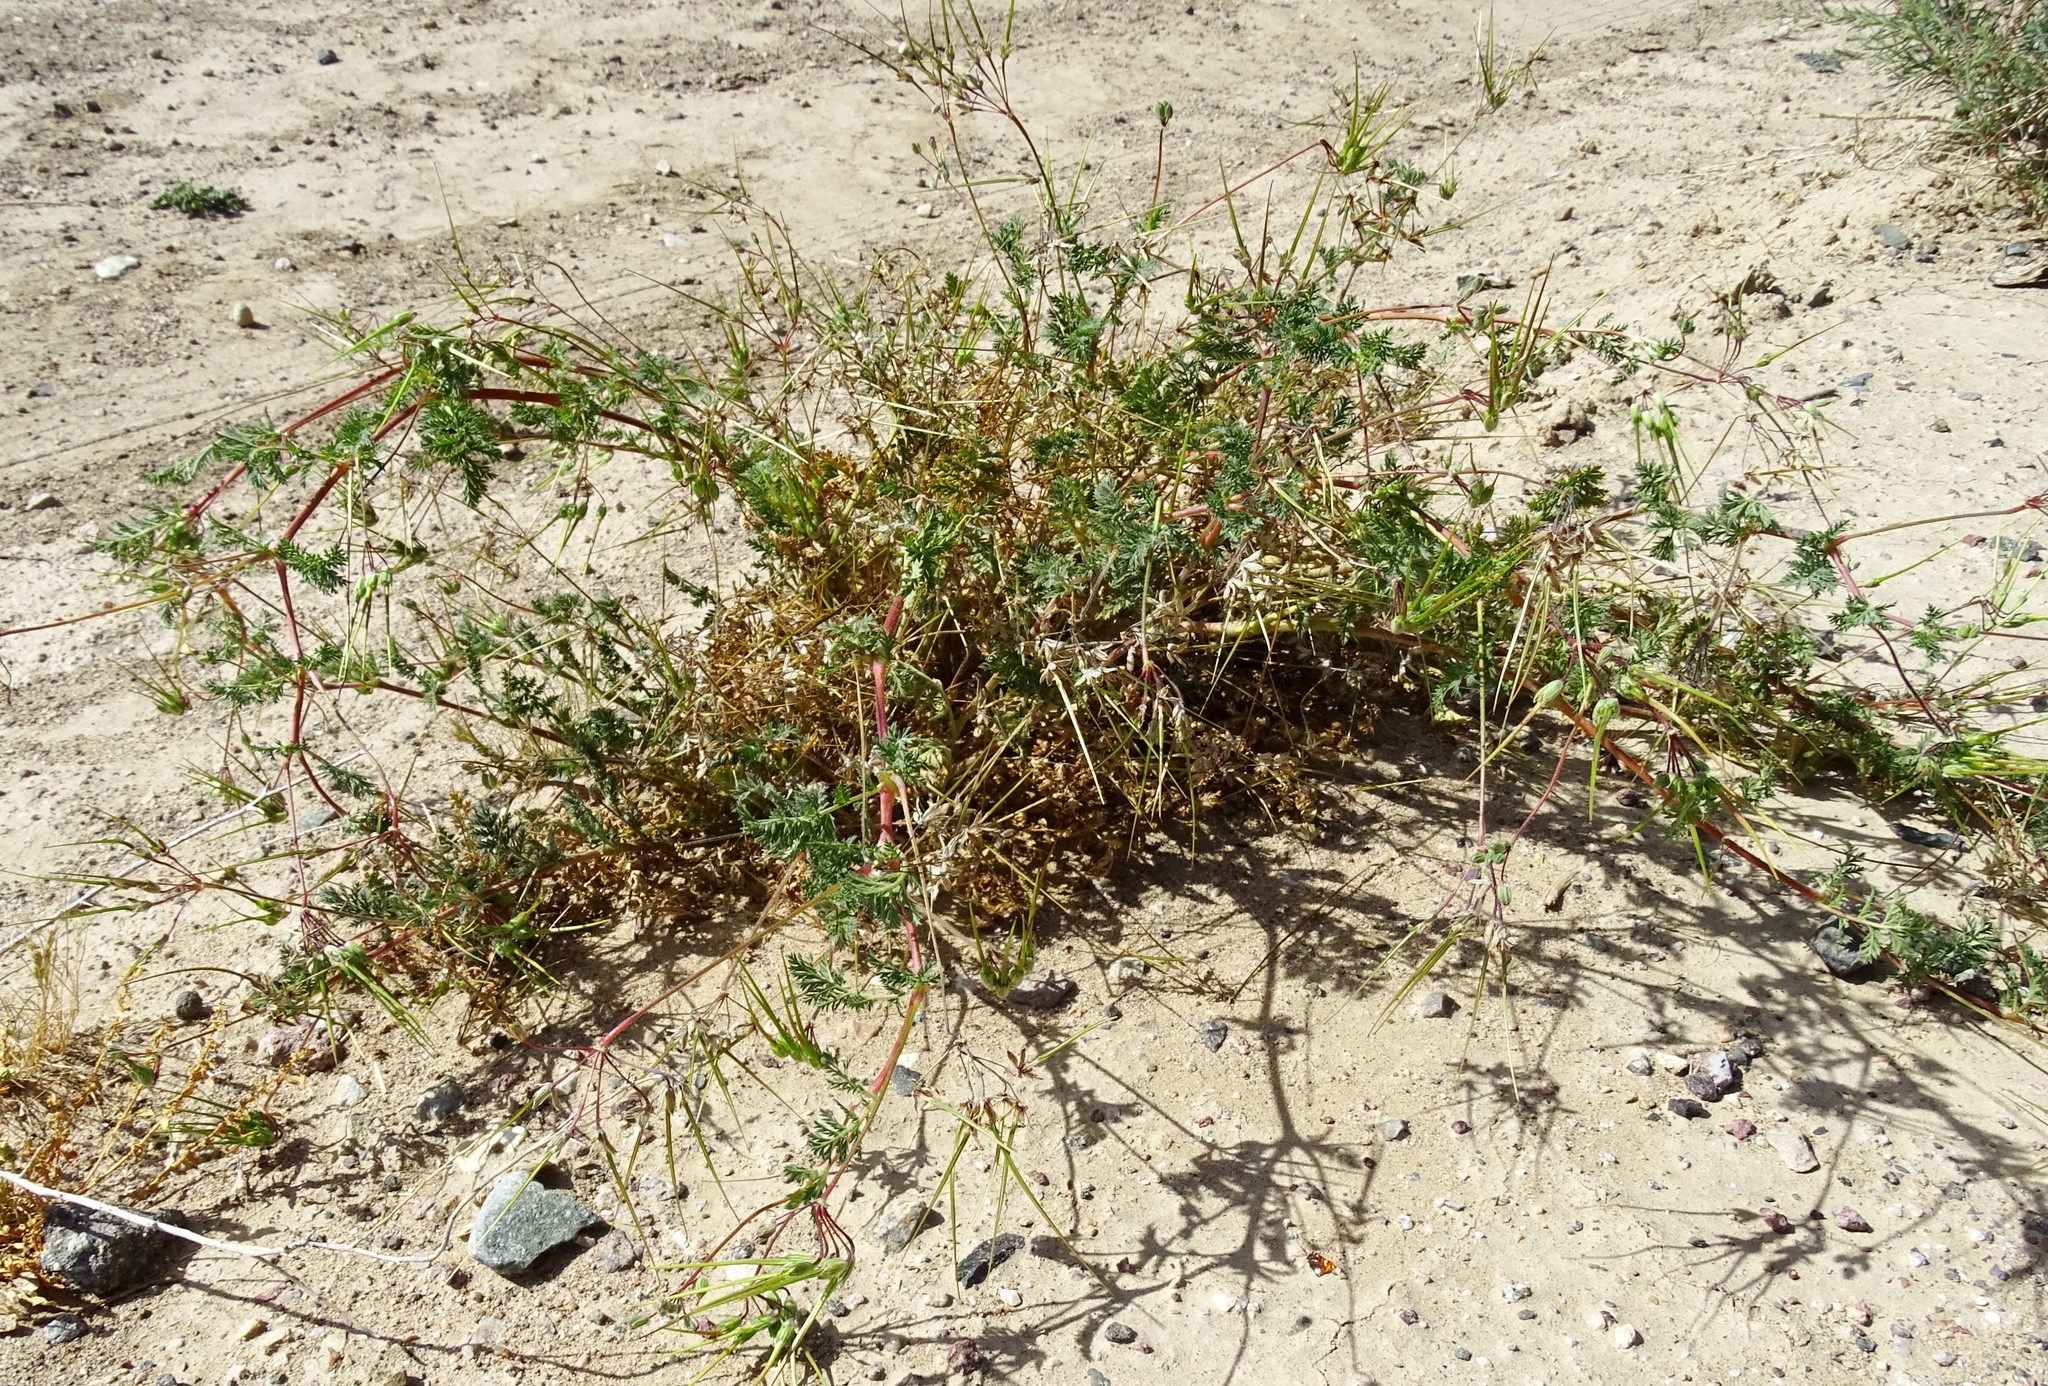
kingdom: Plantae
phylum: Tracheophyta
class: Magnoliopsida
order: Geraniales
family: Geraniaceae
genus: Erodium
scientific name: Erodium cicutarium
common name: Common stork's-bill
